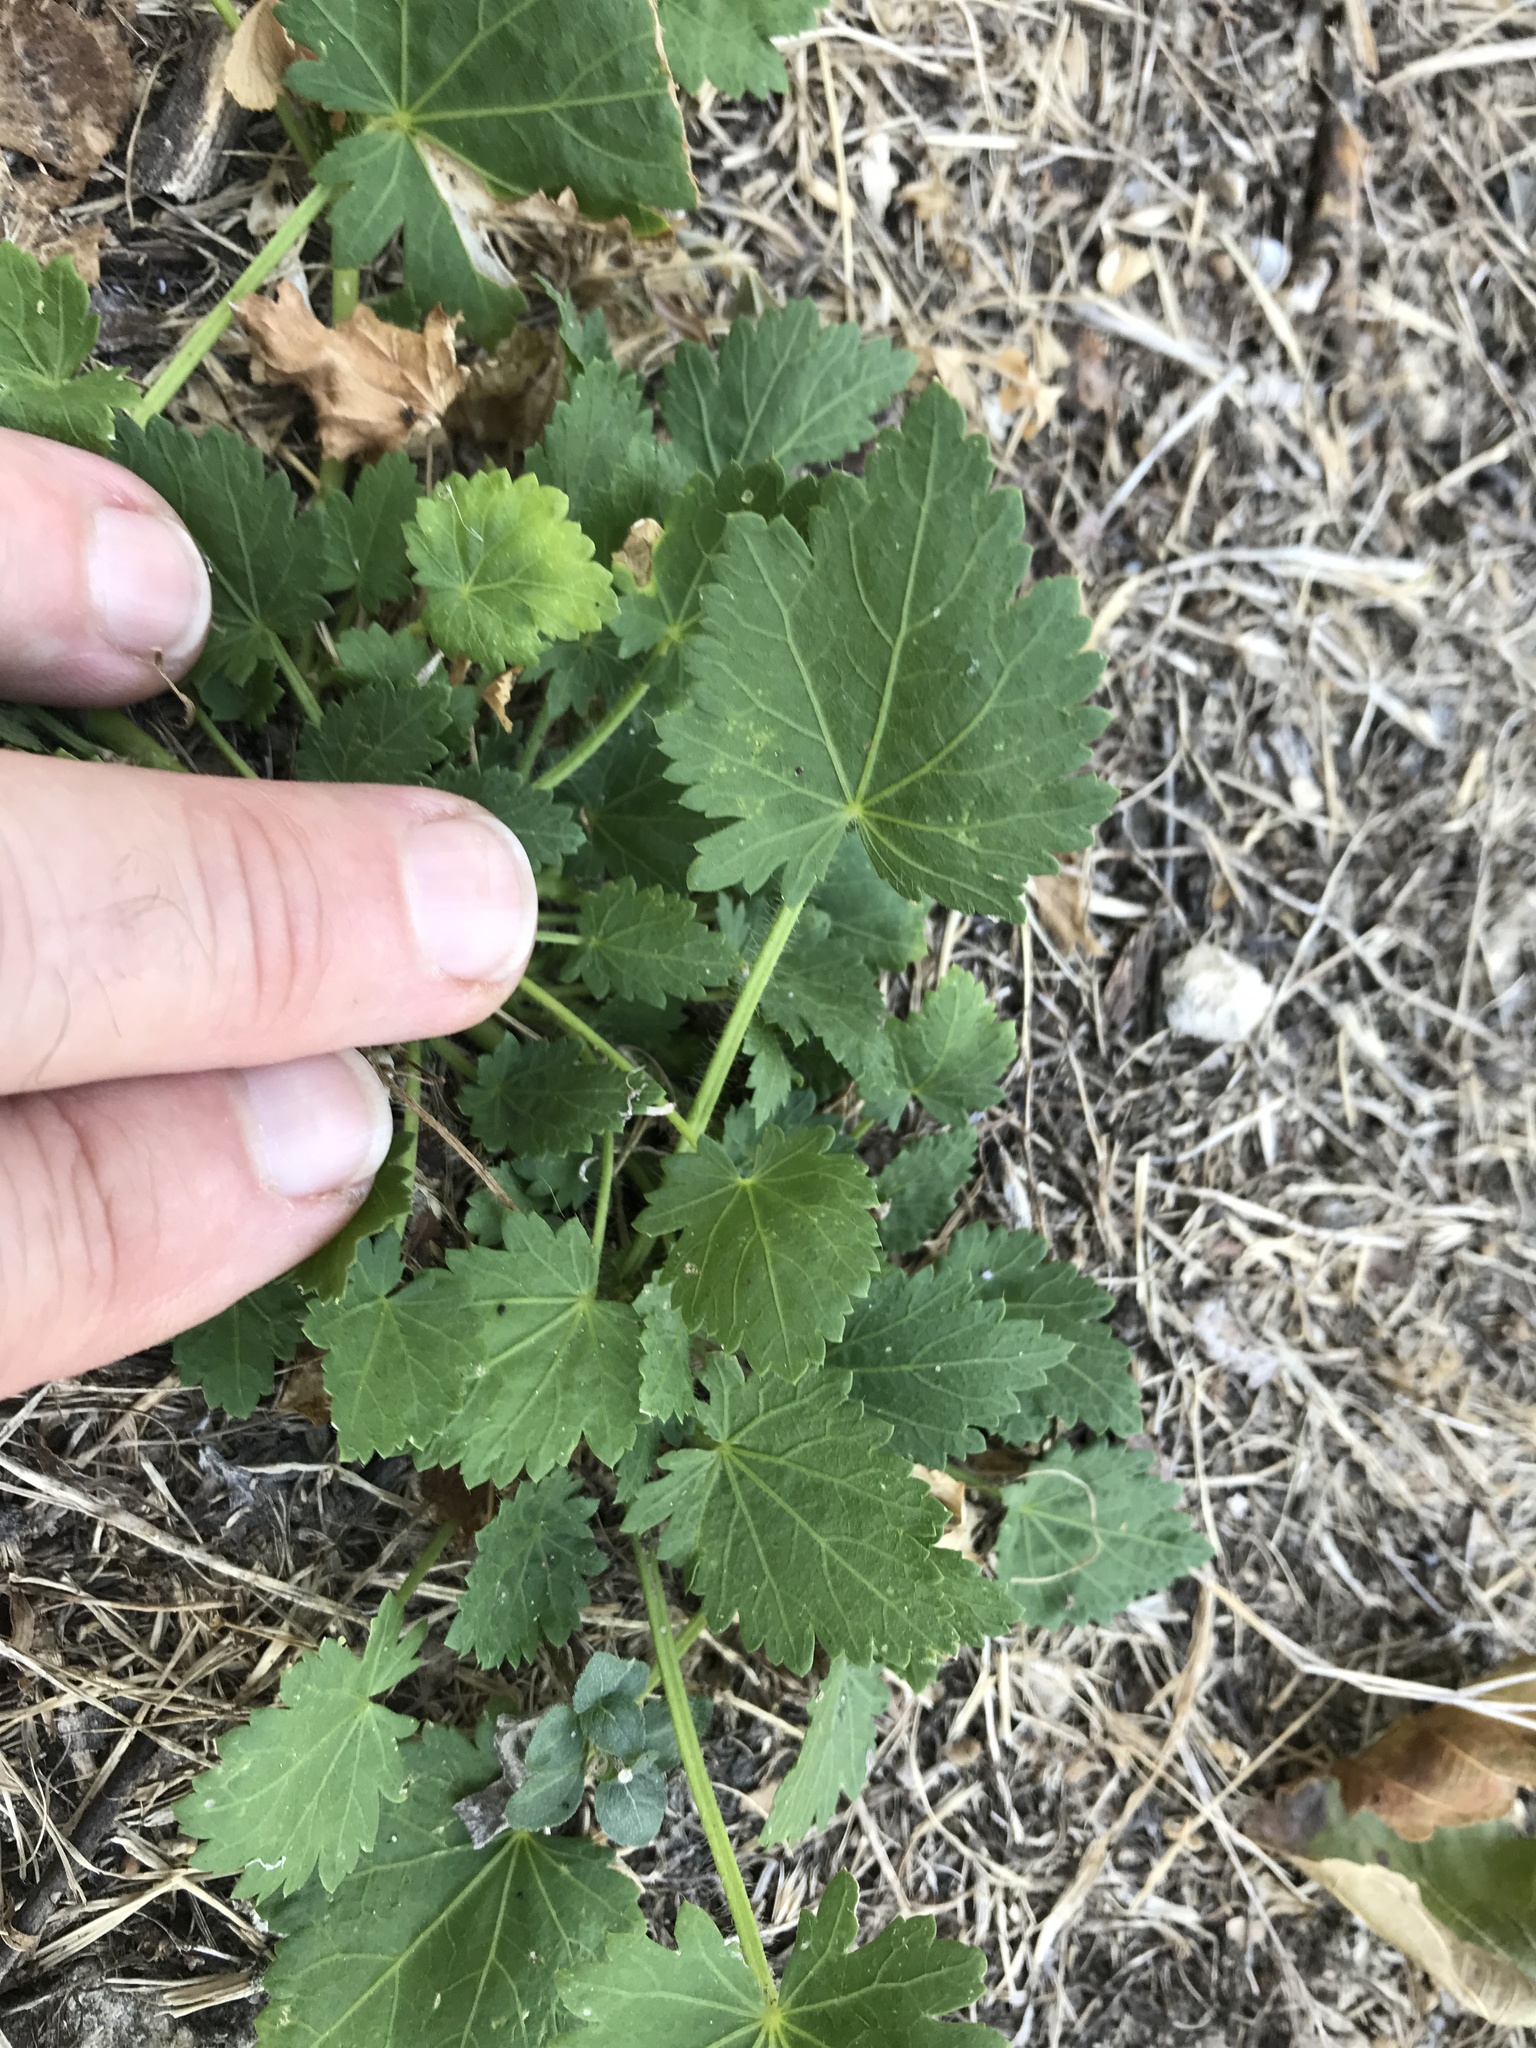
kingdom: Plantae
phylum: Tracheophyta
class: Magnoliopsida
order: Malvales
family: Malvaceae
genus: Modiola
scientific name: Modiola caroliniana
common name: Carolina bristlemallow
